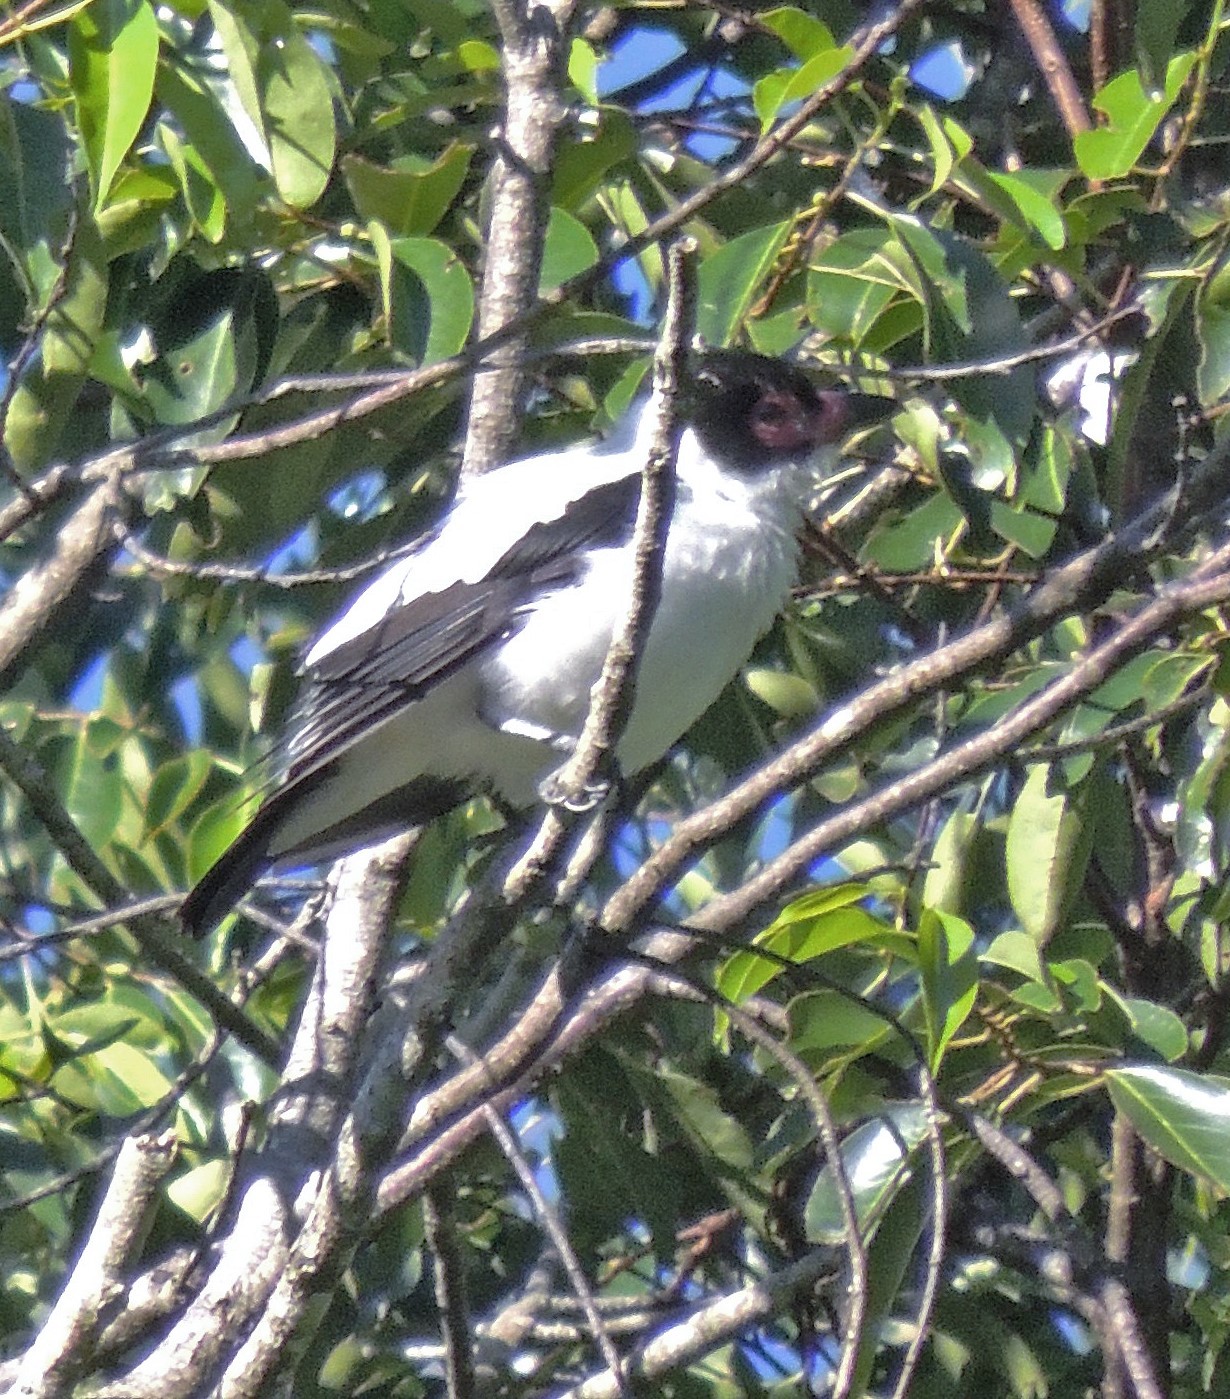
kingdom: Animalia
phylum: Chordata
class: Aves
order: Passeriformes
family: Cotingidae
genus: Tityra
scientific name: Tityra cayana
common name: Black-tailed tityra
